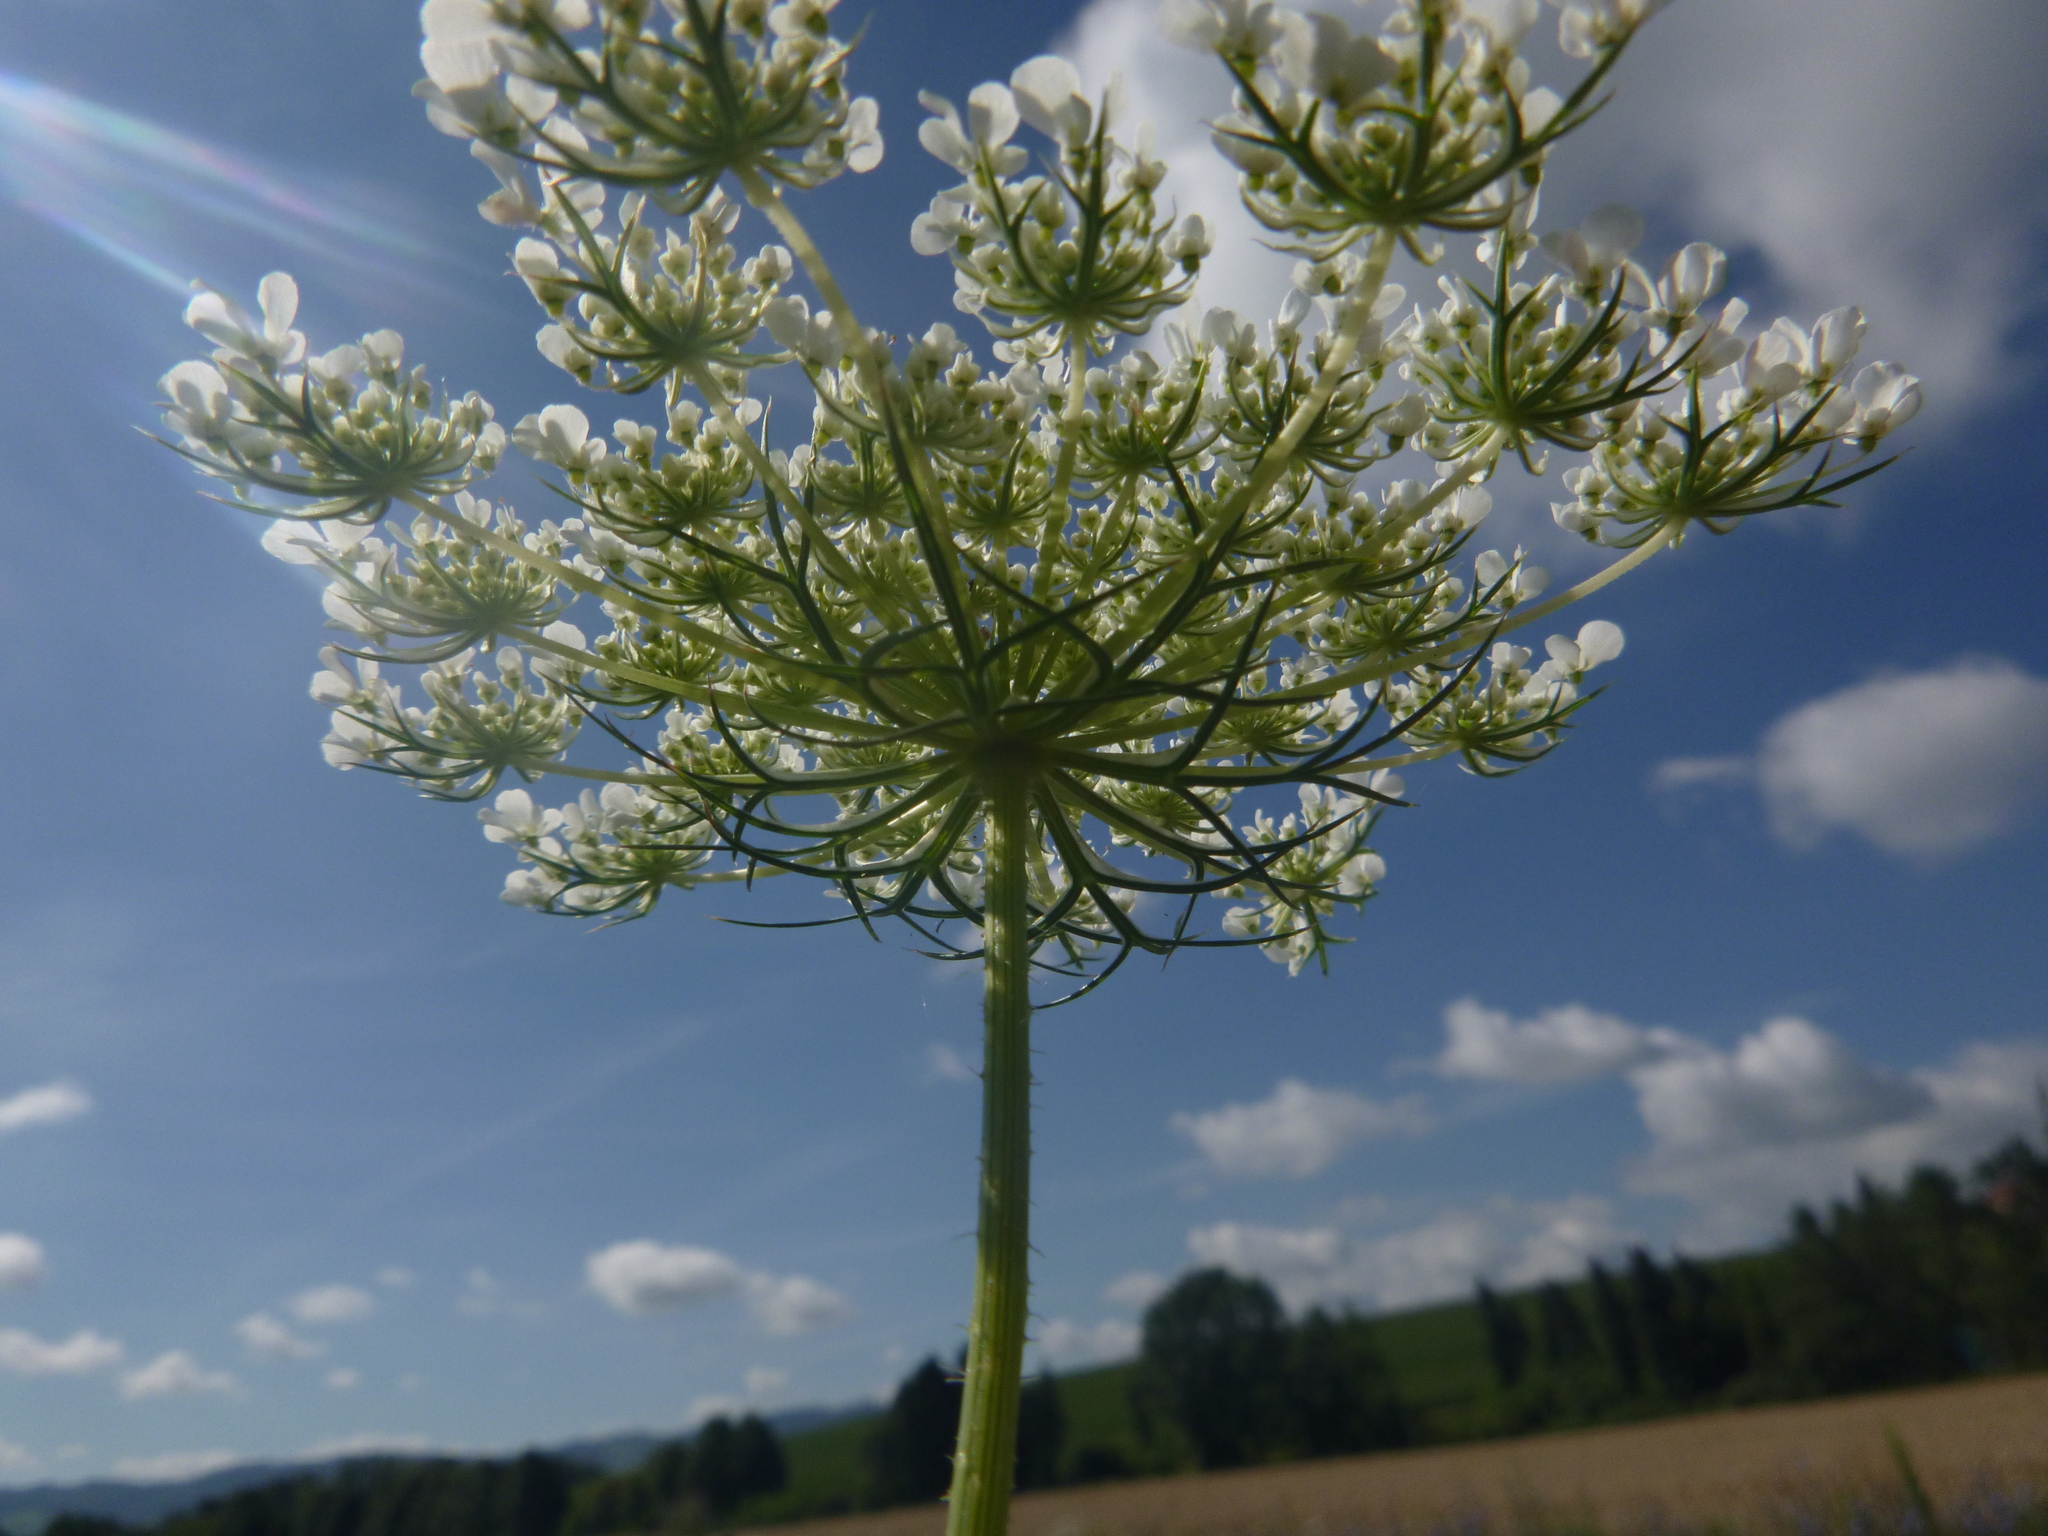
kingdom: Plantae
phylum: Tracheophyta
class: Magnoliopsida
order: Apiales
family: Apiaceae
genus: Daucus
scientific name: Daucus carota
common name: Wild carrot
